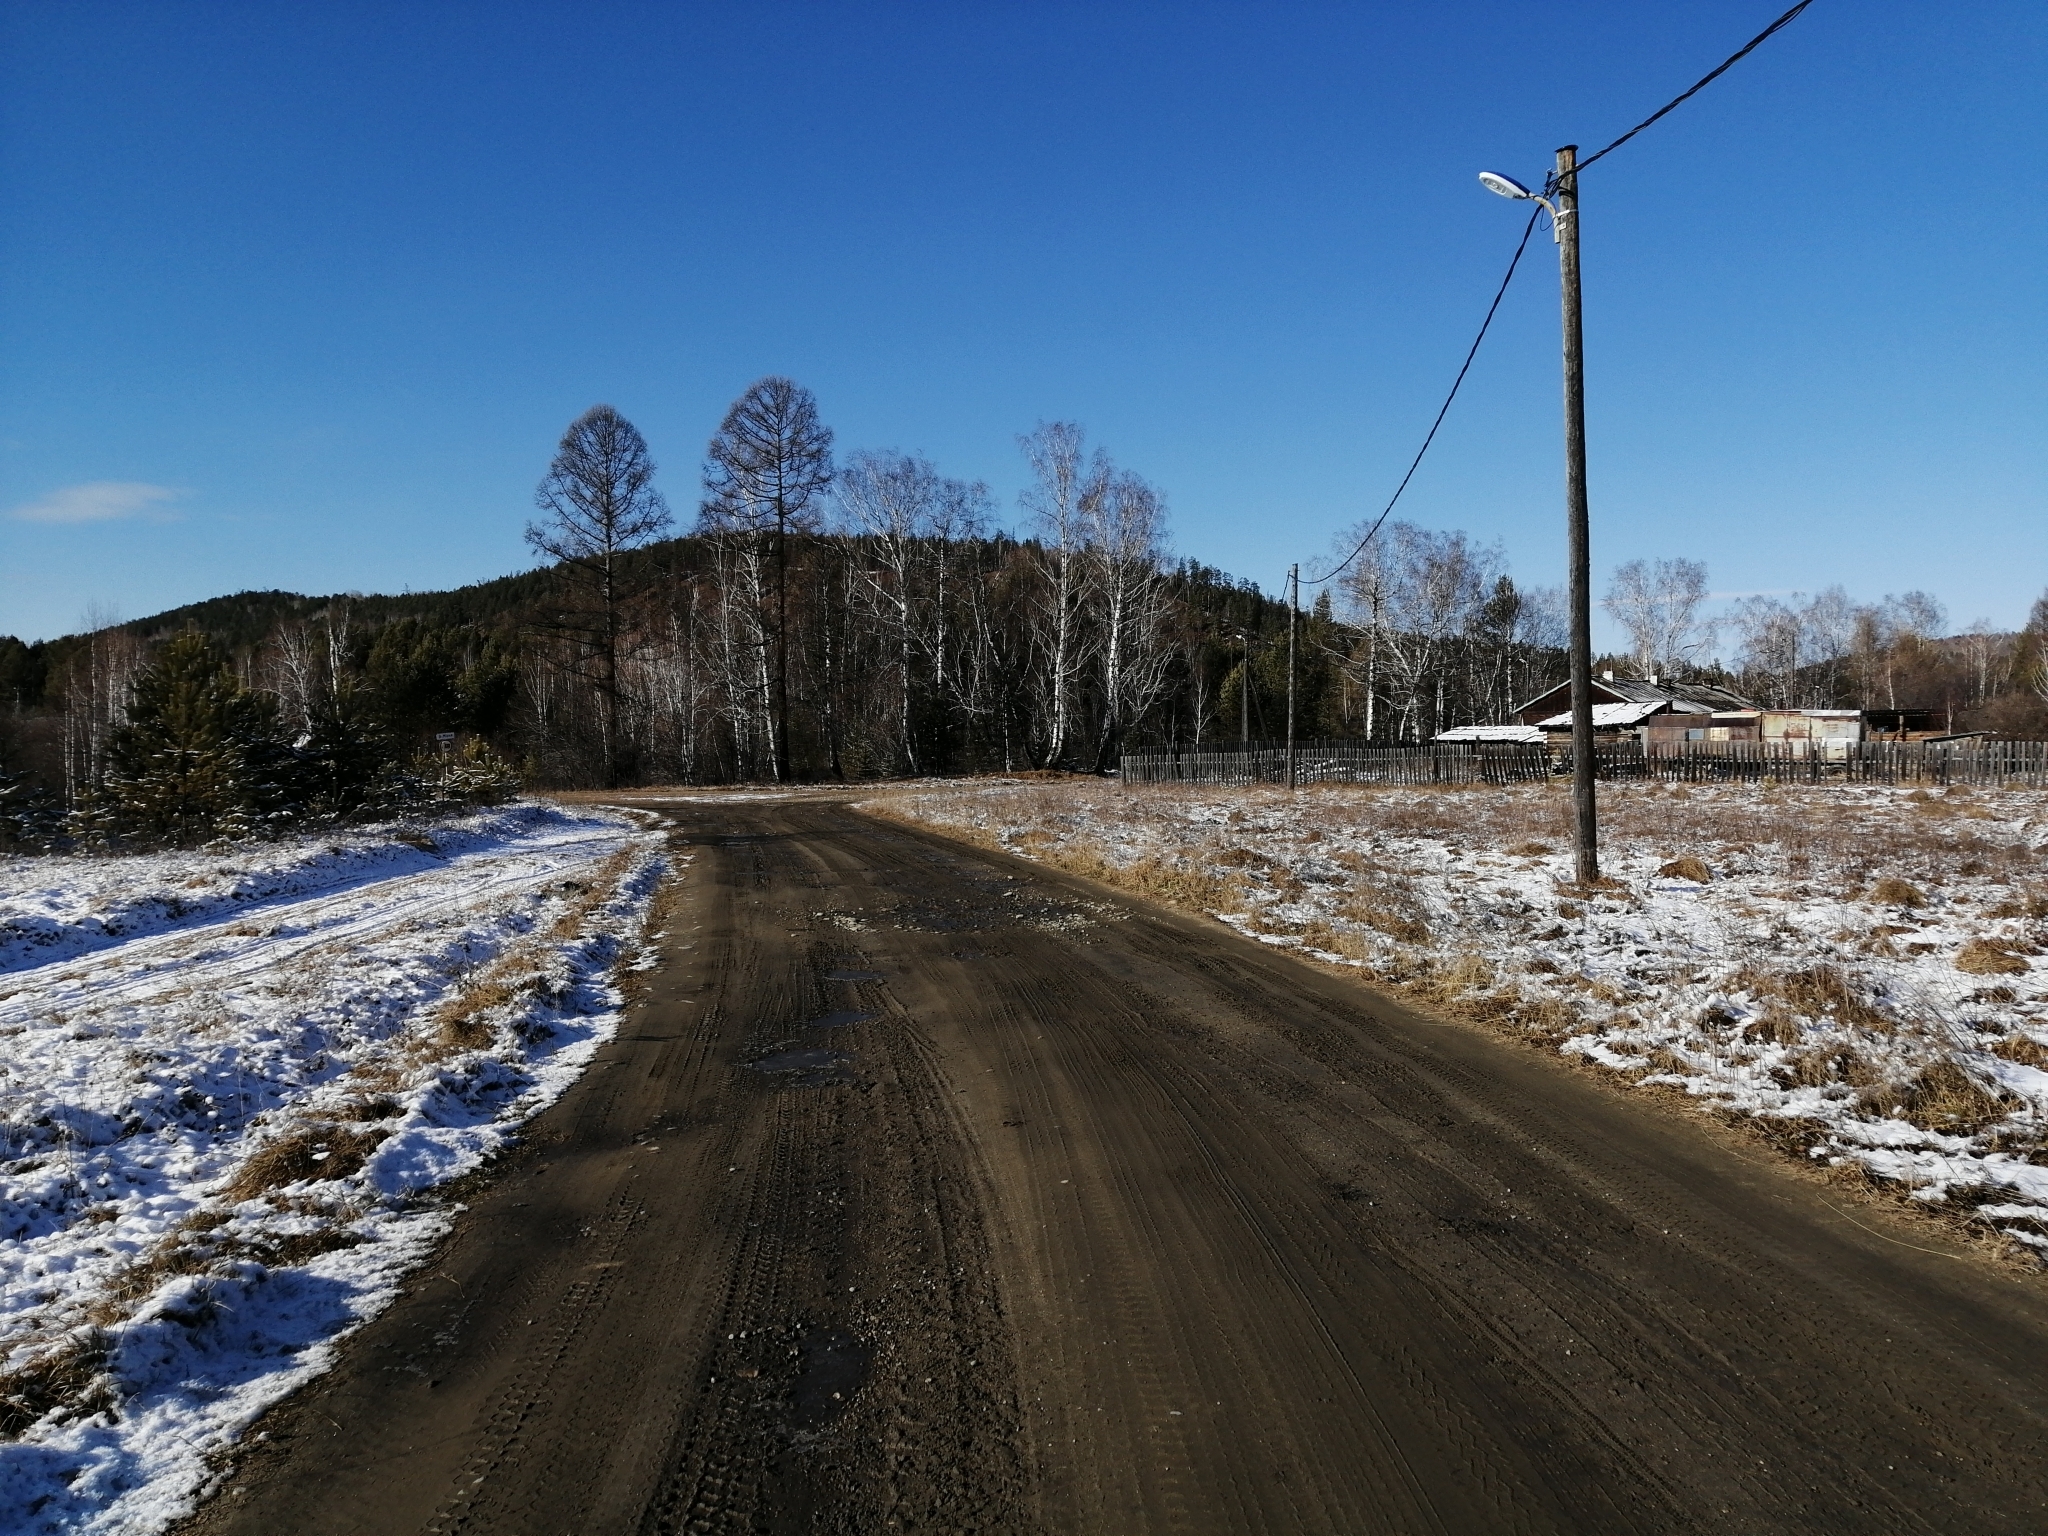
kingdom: Plantae
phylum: Tracheophyta
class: Pinopsida
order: Pinales
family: Pinaceae
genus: Larix
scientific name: Larix sibirica
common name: Siberian larch
